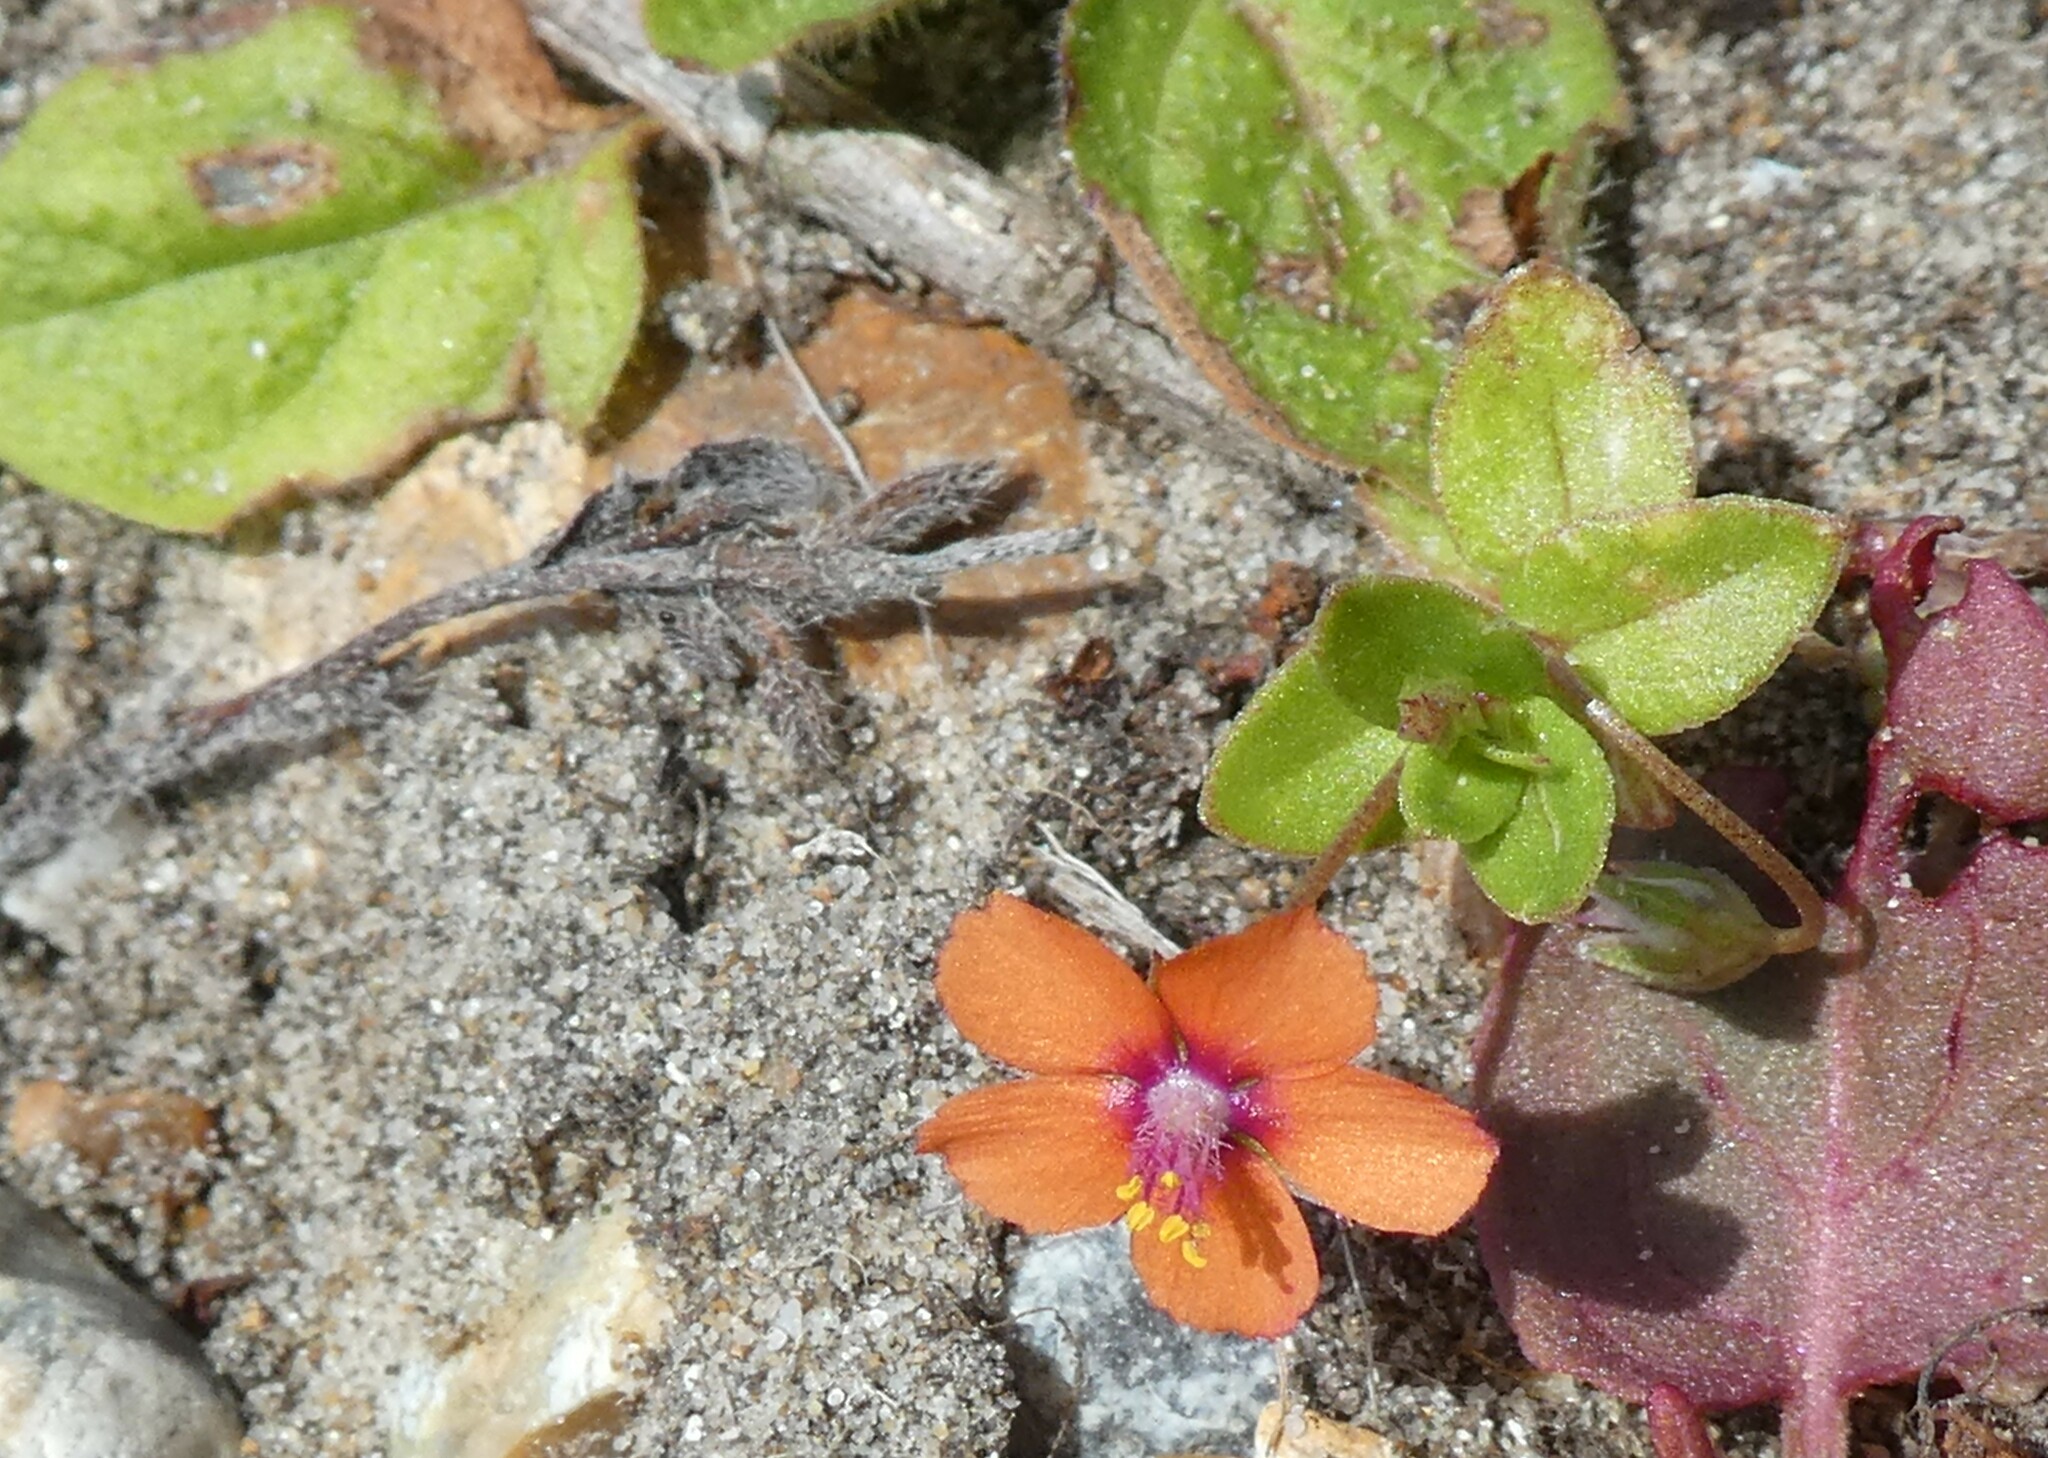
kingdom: Plantae
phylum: Tracheophyta
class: Magnoliopsida
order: Ericales
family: Primulaceae
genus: Lysimachia
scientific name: Lysimachia arvensis
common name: Scarlet pimpernel
